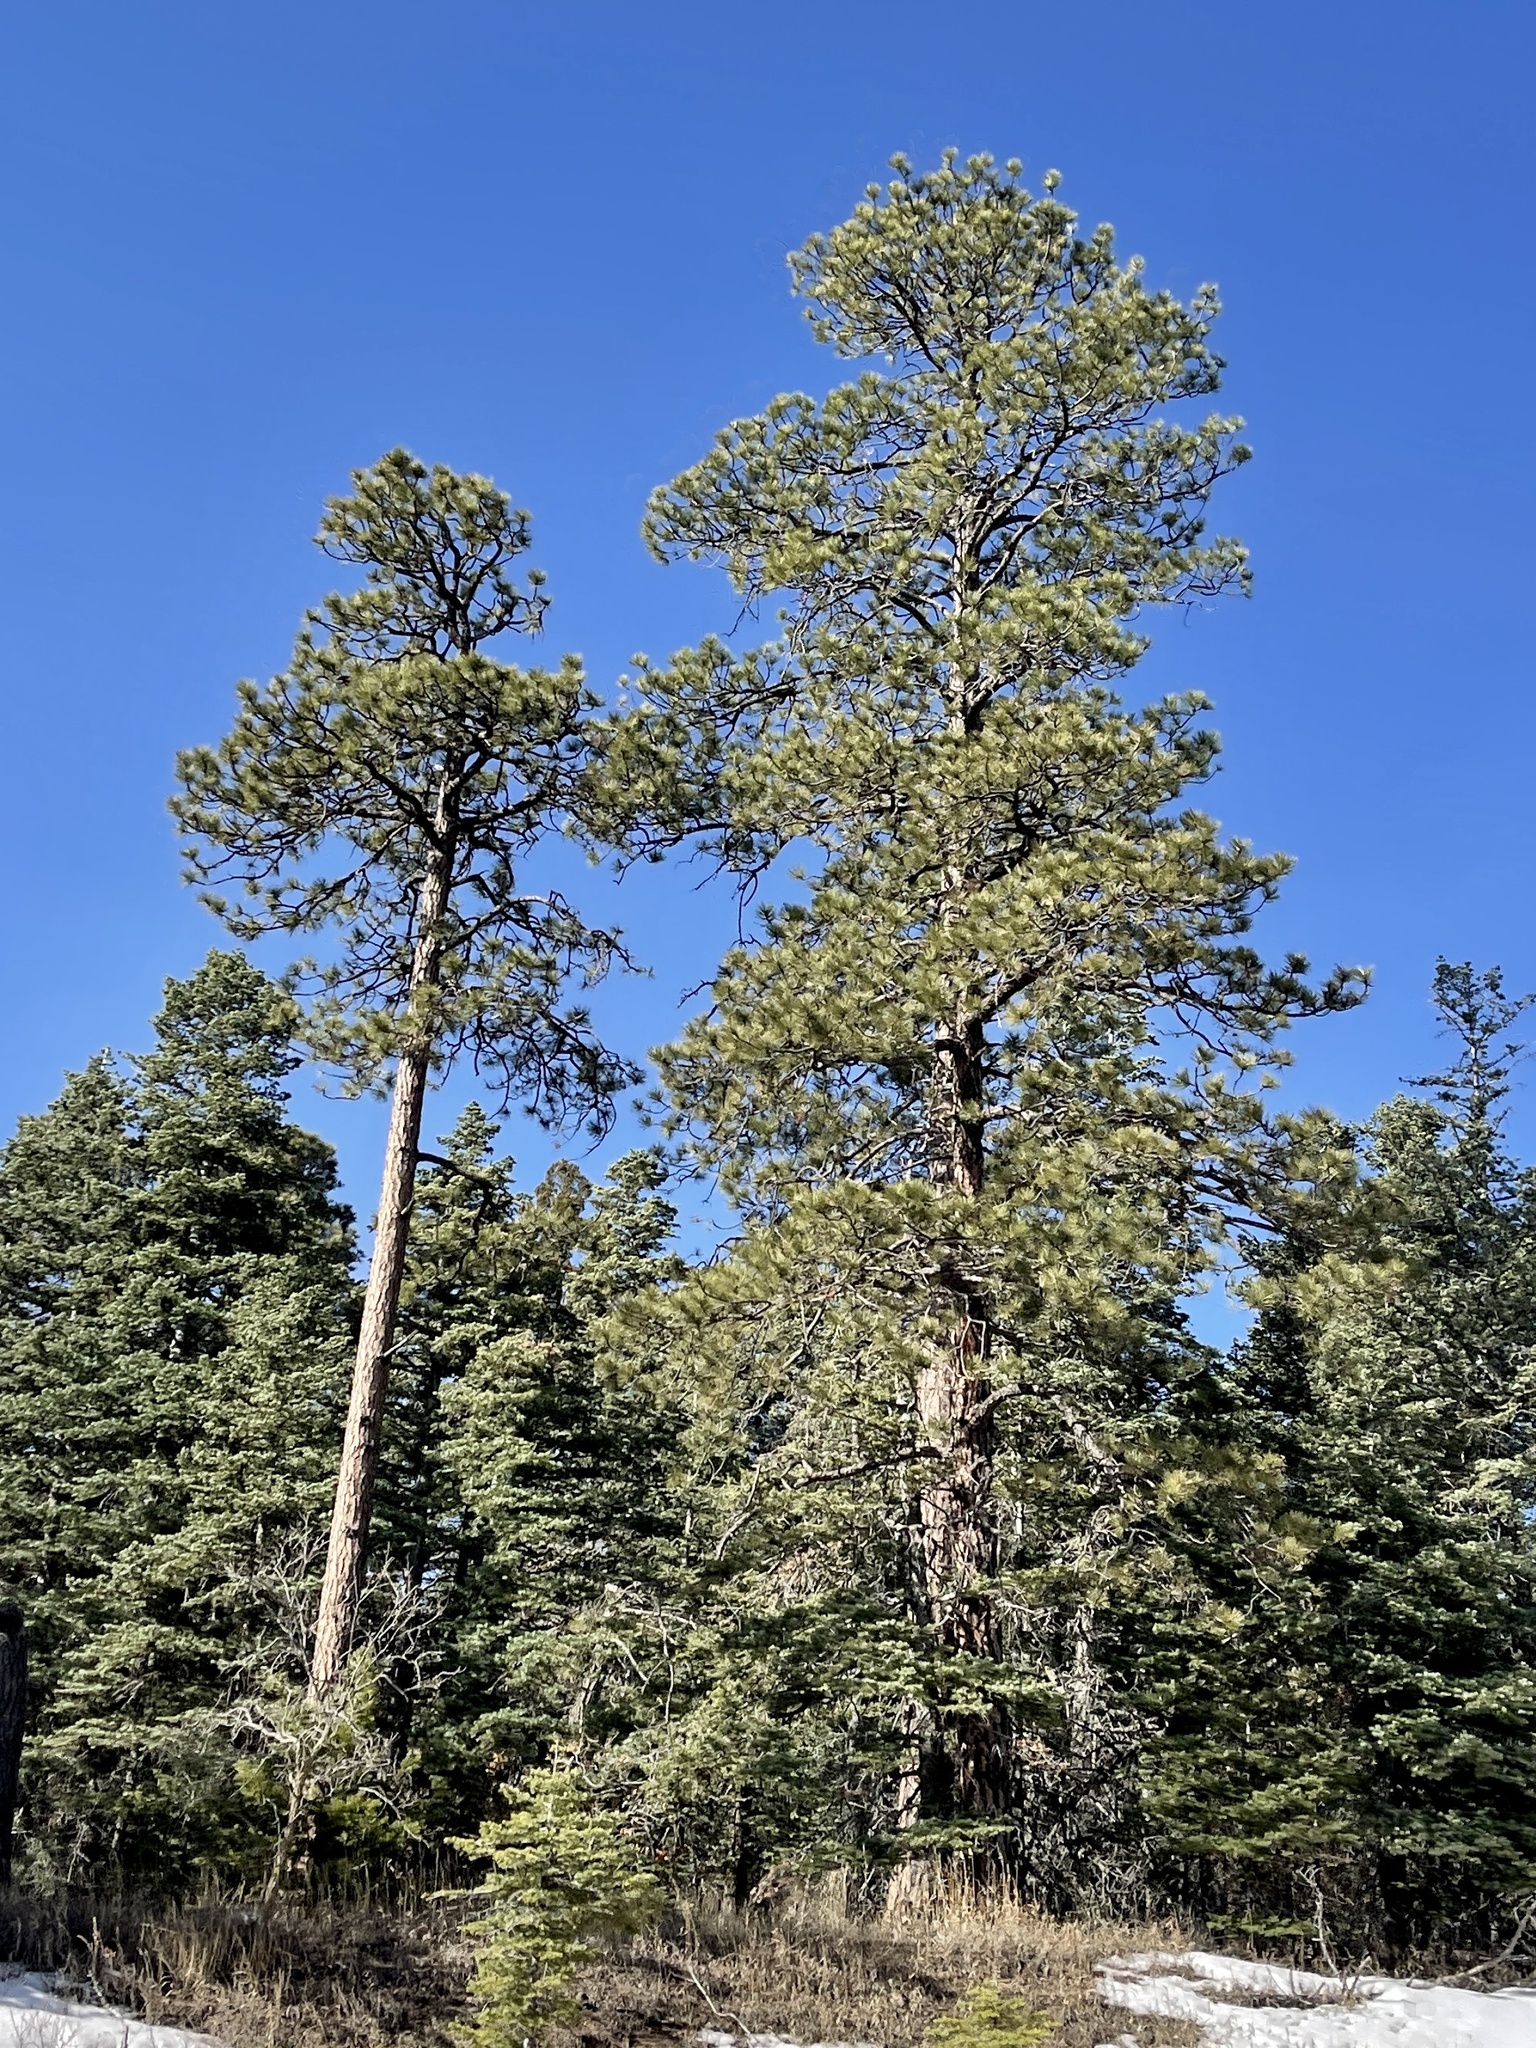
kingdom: Plantae
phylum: Tracheophyta
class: Pinopsida
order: Pinales
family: Pinaceae
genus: Pinus
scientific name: Pinus ponderosa
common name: Western yellow-pine
